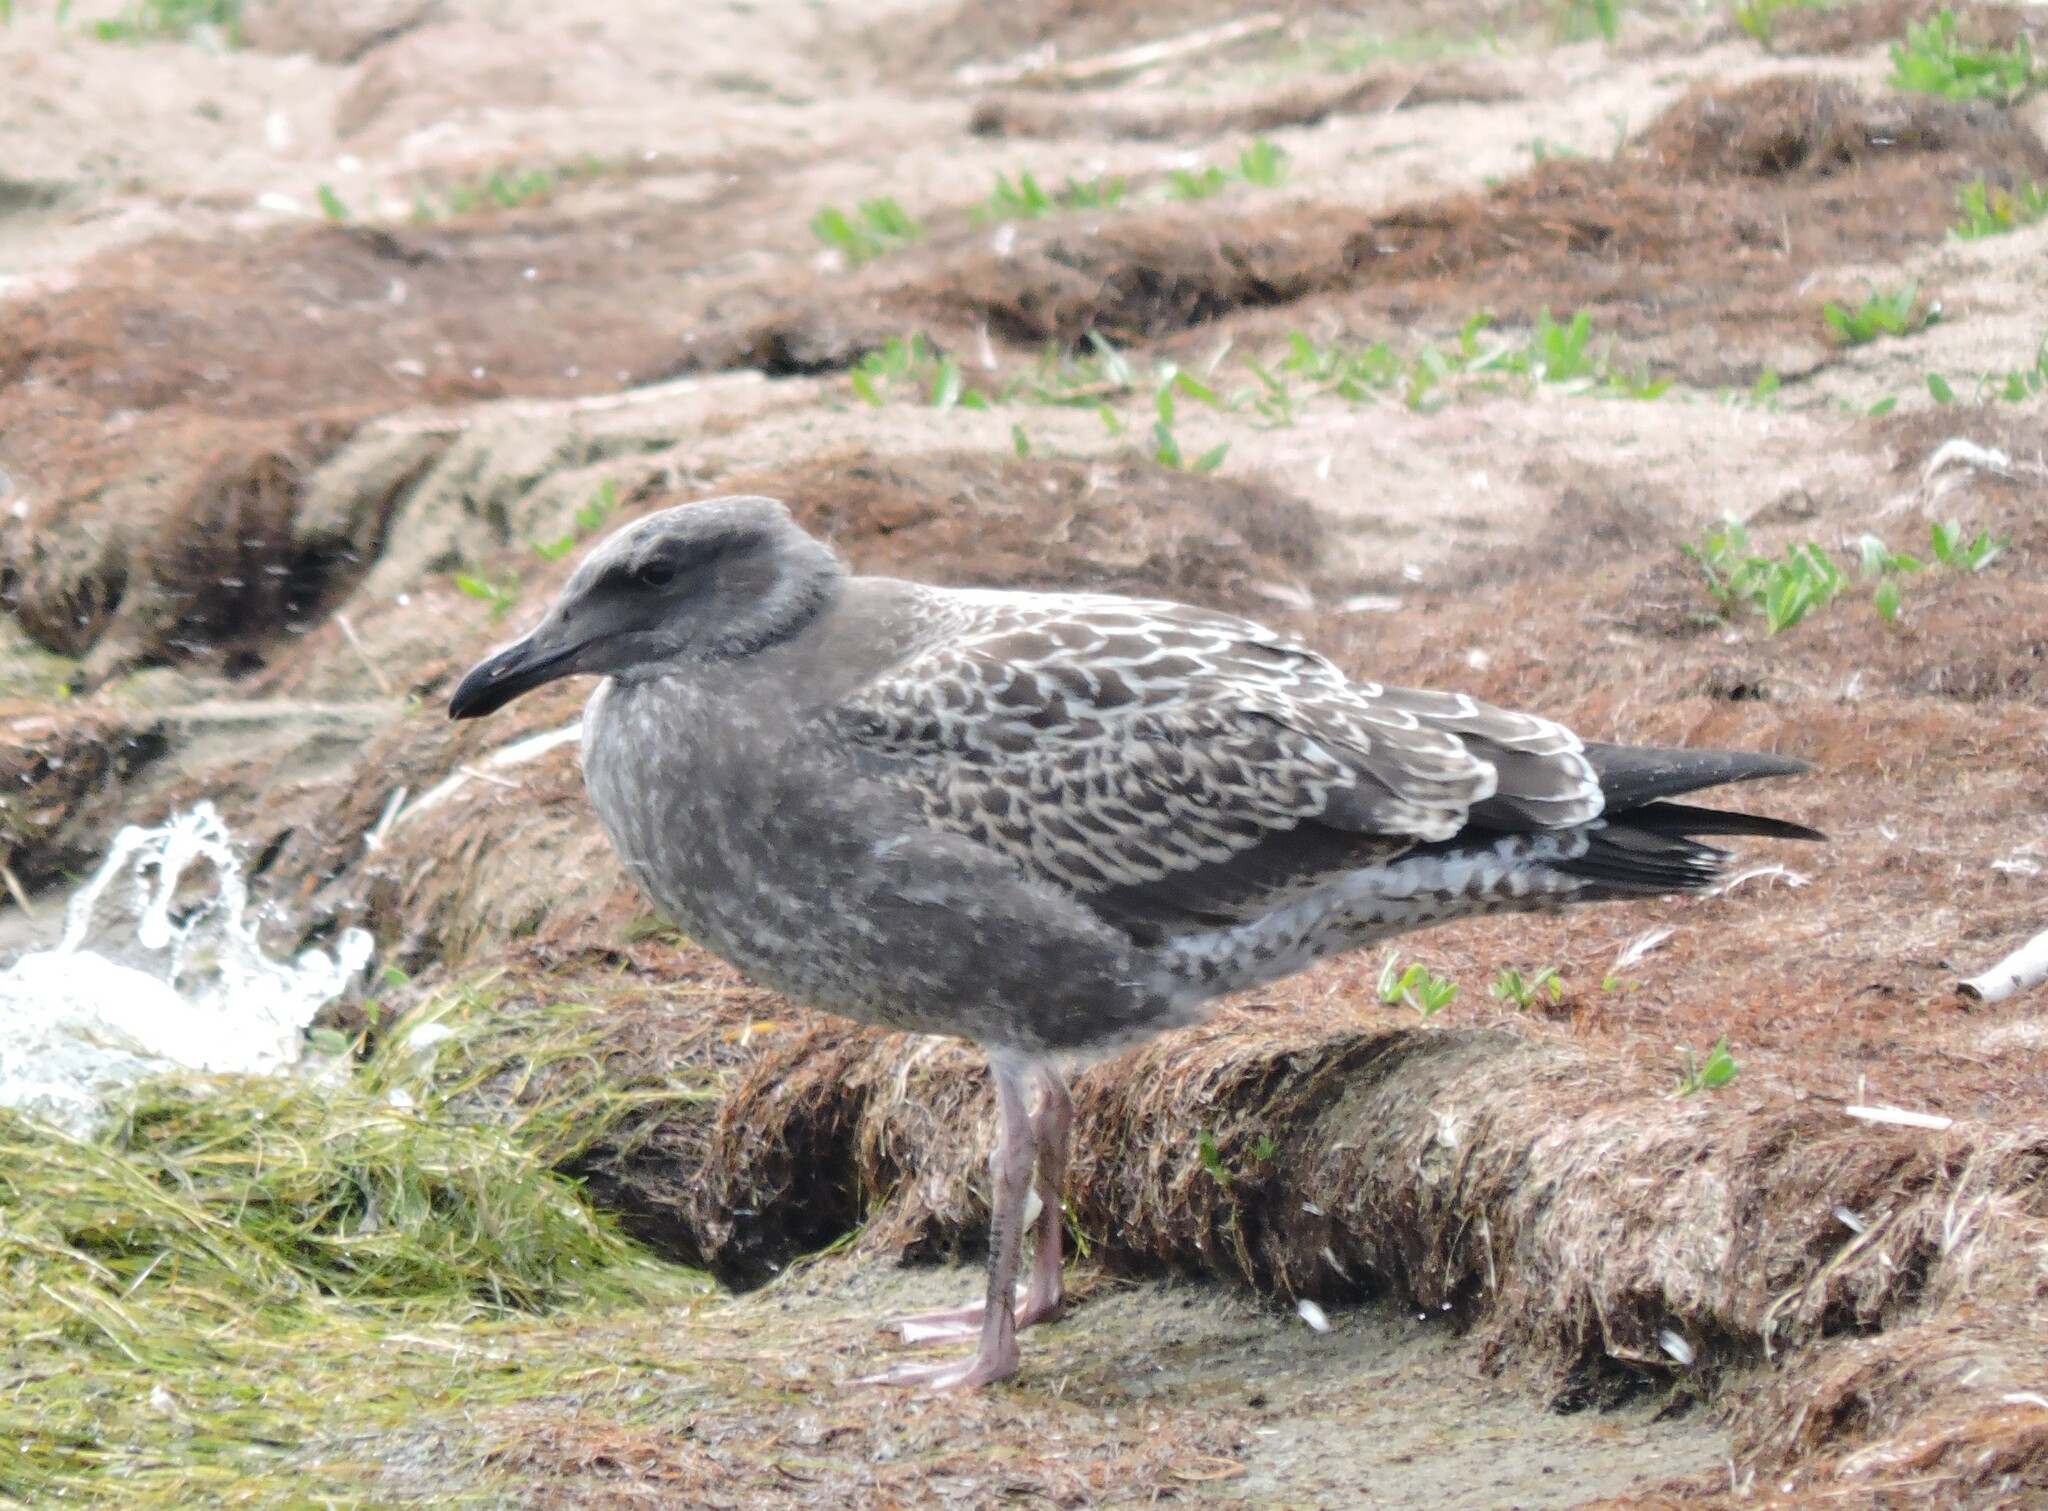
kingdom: Animalia
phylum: Chordata
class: Aves
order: Charadriiformes
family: Laridae
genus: Larus
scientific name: Larus occidentalis
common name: Western gull
